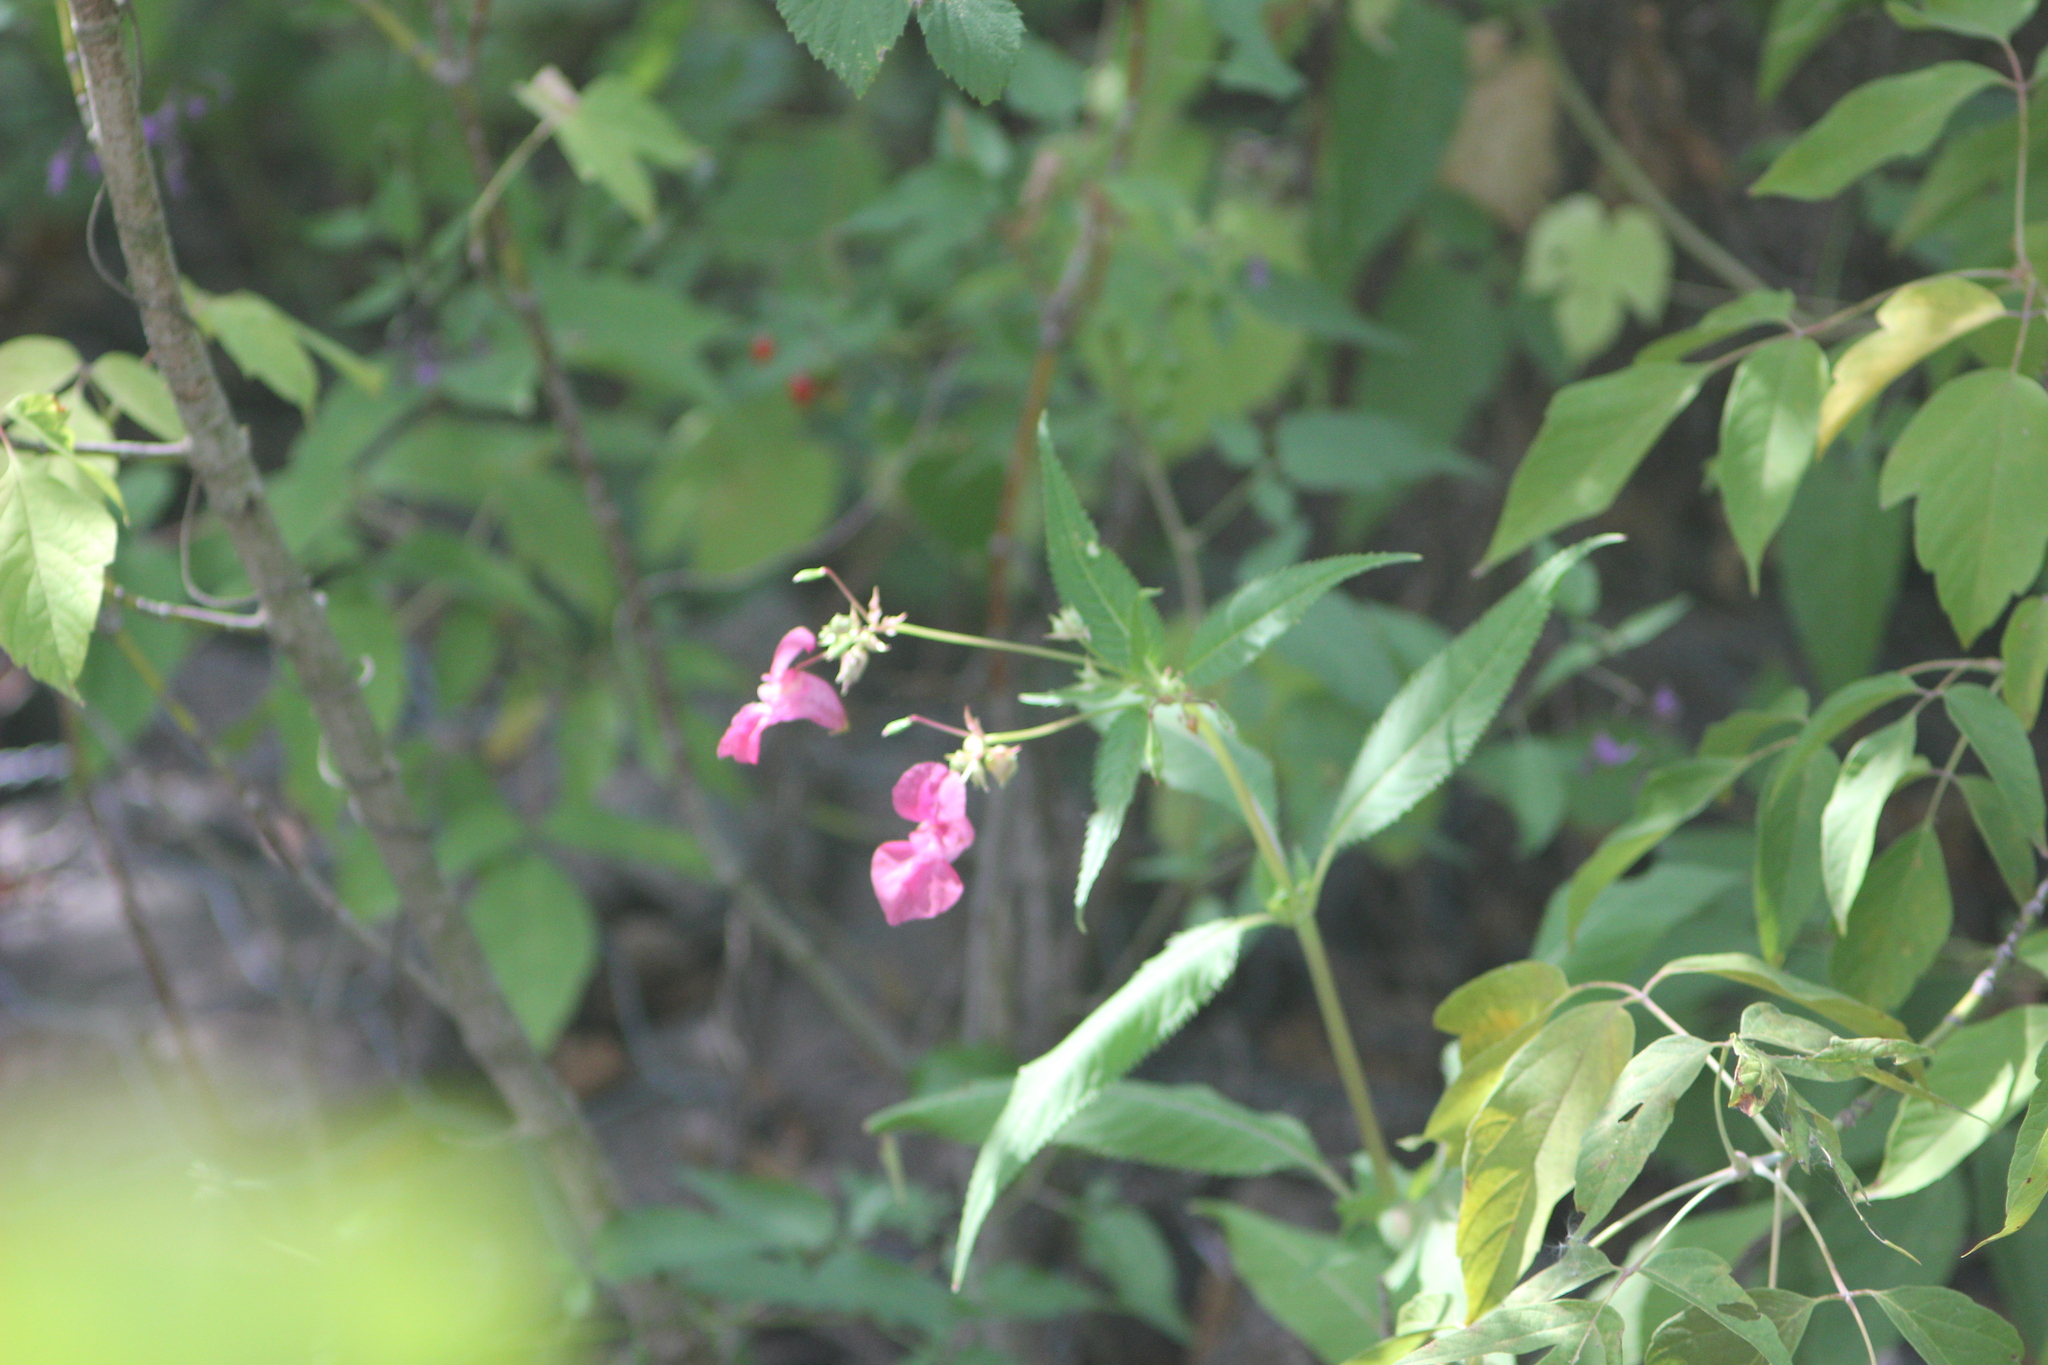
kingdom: Plantae
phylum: Tracheophyta
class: Magnoliopsida
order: Ericales
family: Balsaminaceae
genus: Impatiens
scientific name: Impatiens glandulifera
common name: Himalayan balsam
